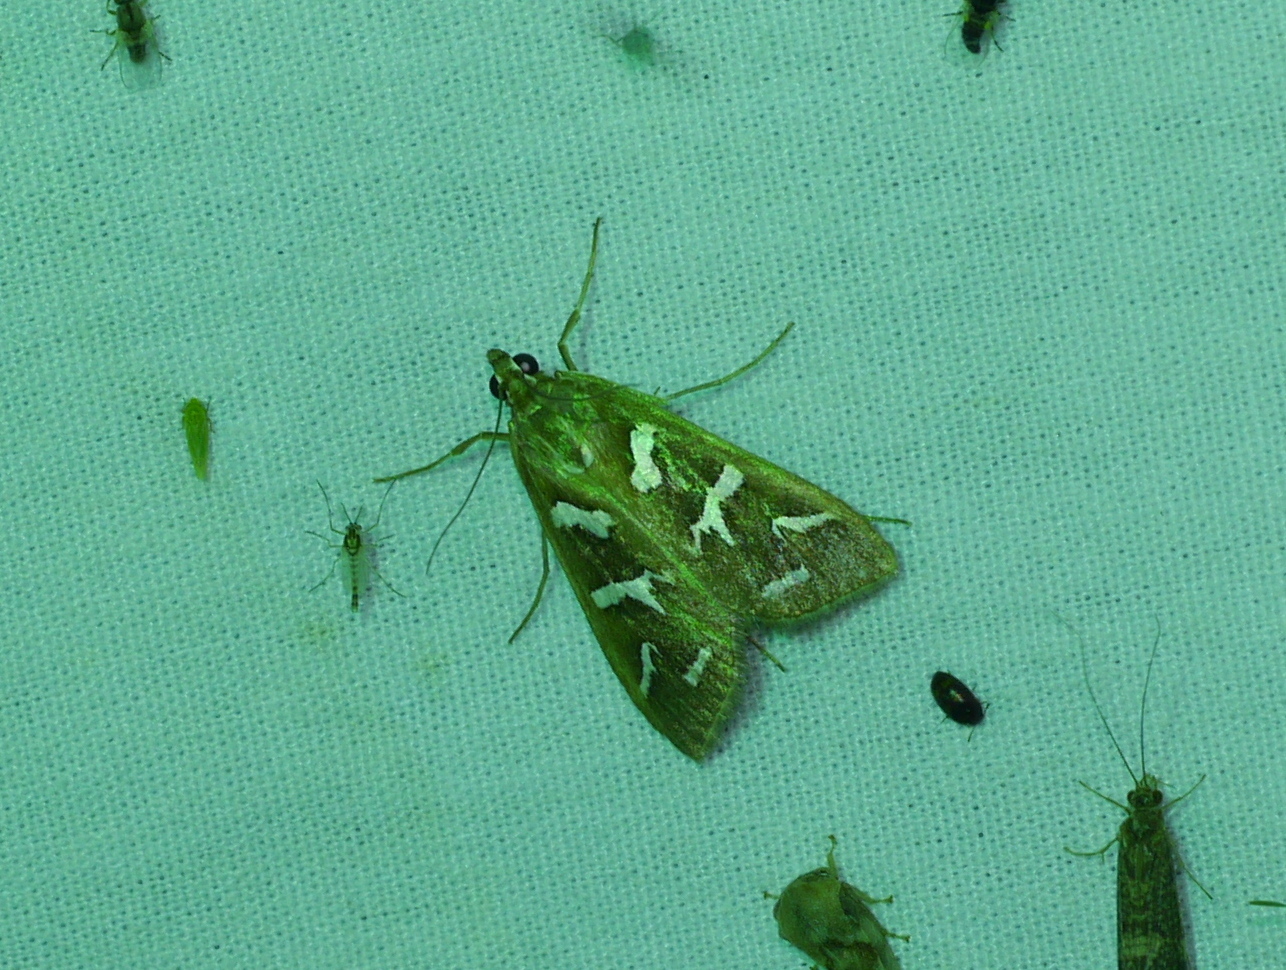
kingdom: Animalia
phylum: Arthropoda
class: Insecta
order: Lepidoptera
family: Crambidae
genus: Diastictis
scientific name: Diastictis fracturalis
